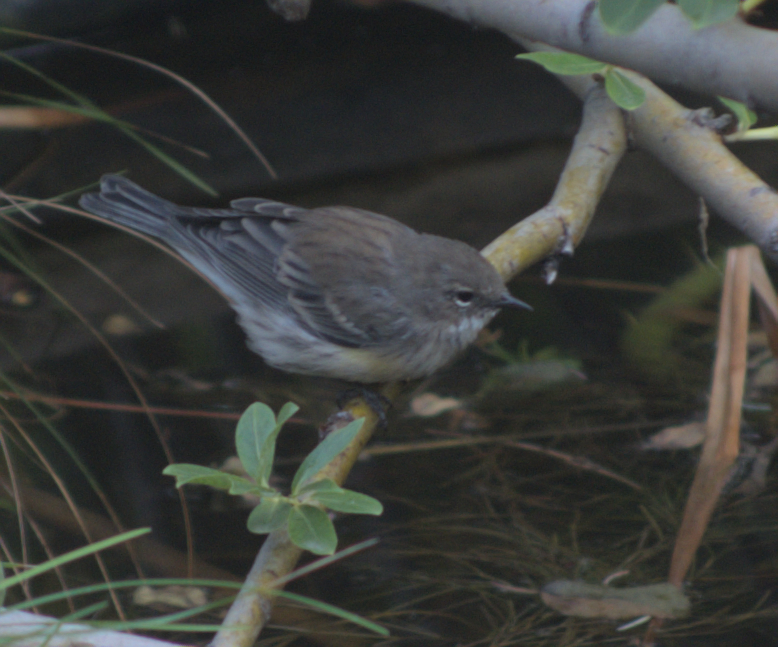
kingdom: Animalia
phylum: Chordata
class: Aves
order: Passeriformes
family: Parulidae
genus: Setophaga
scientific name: Setophaga coronata
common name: Myrtle warbler
